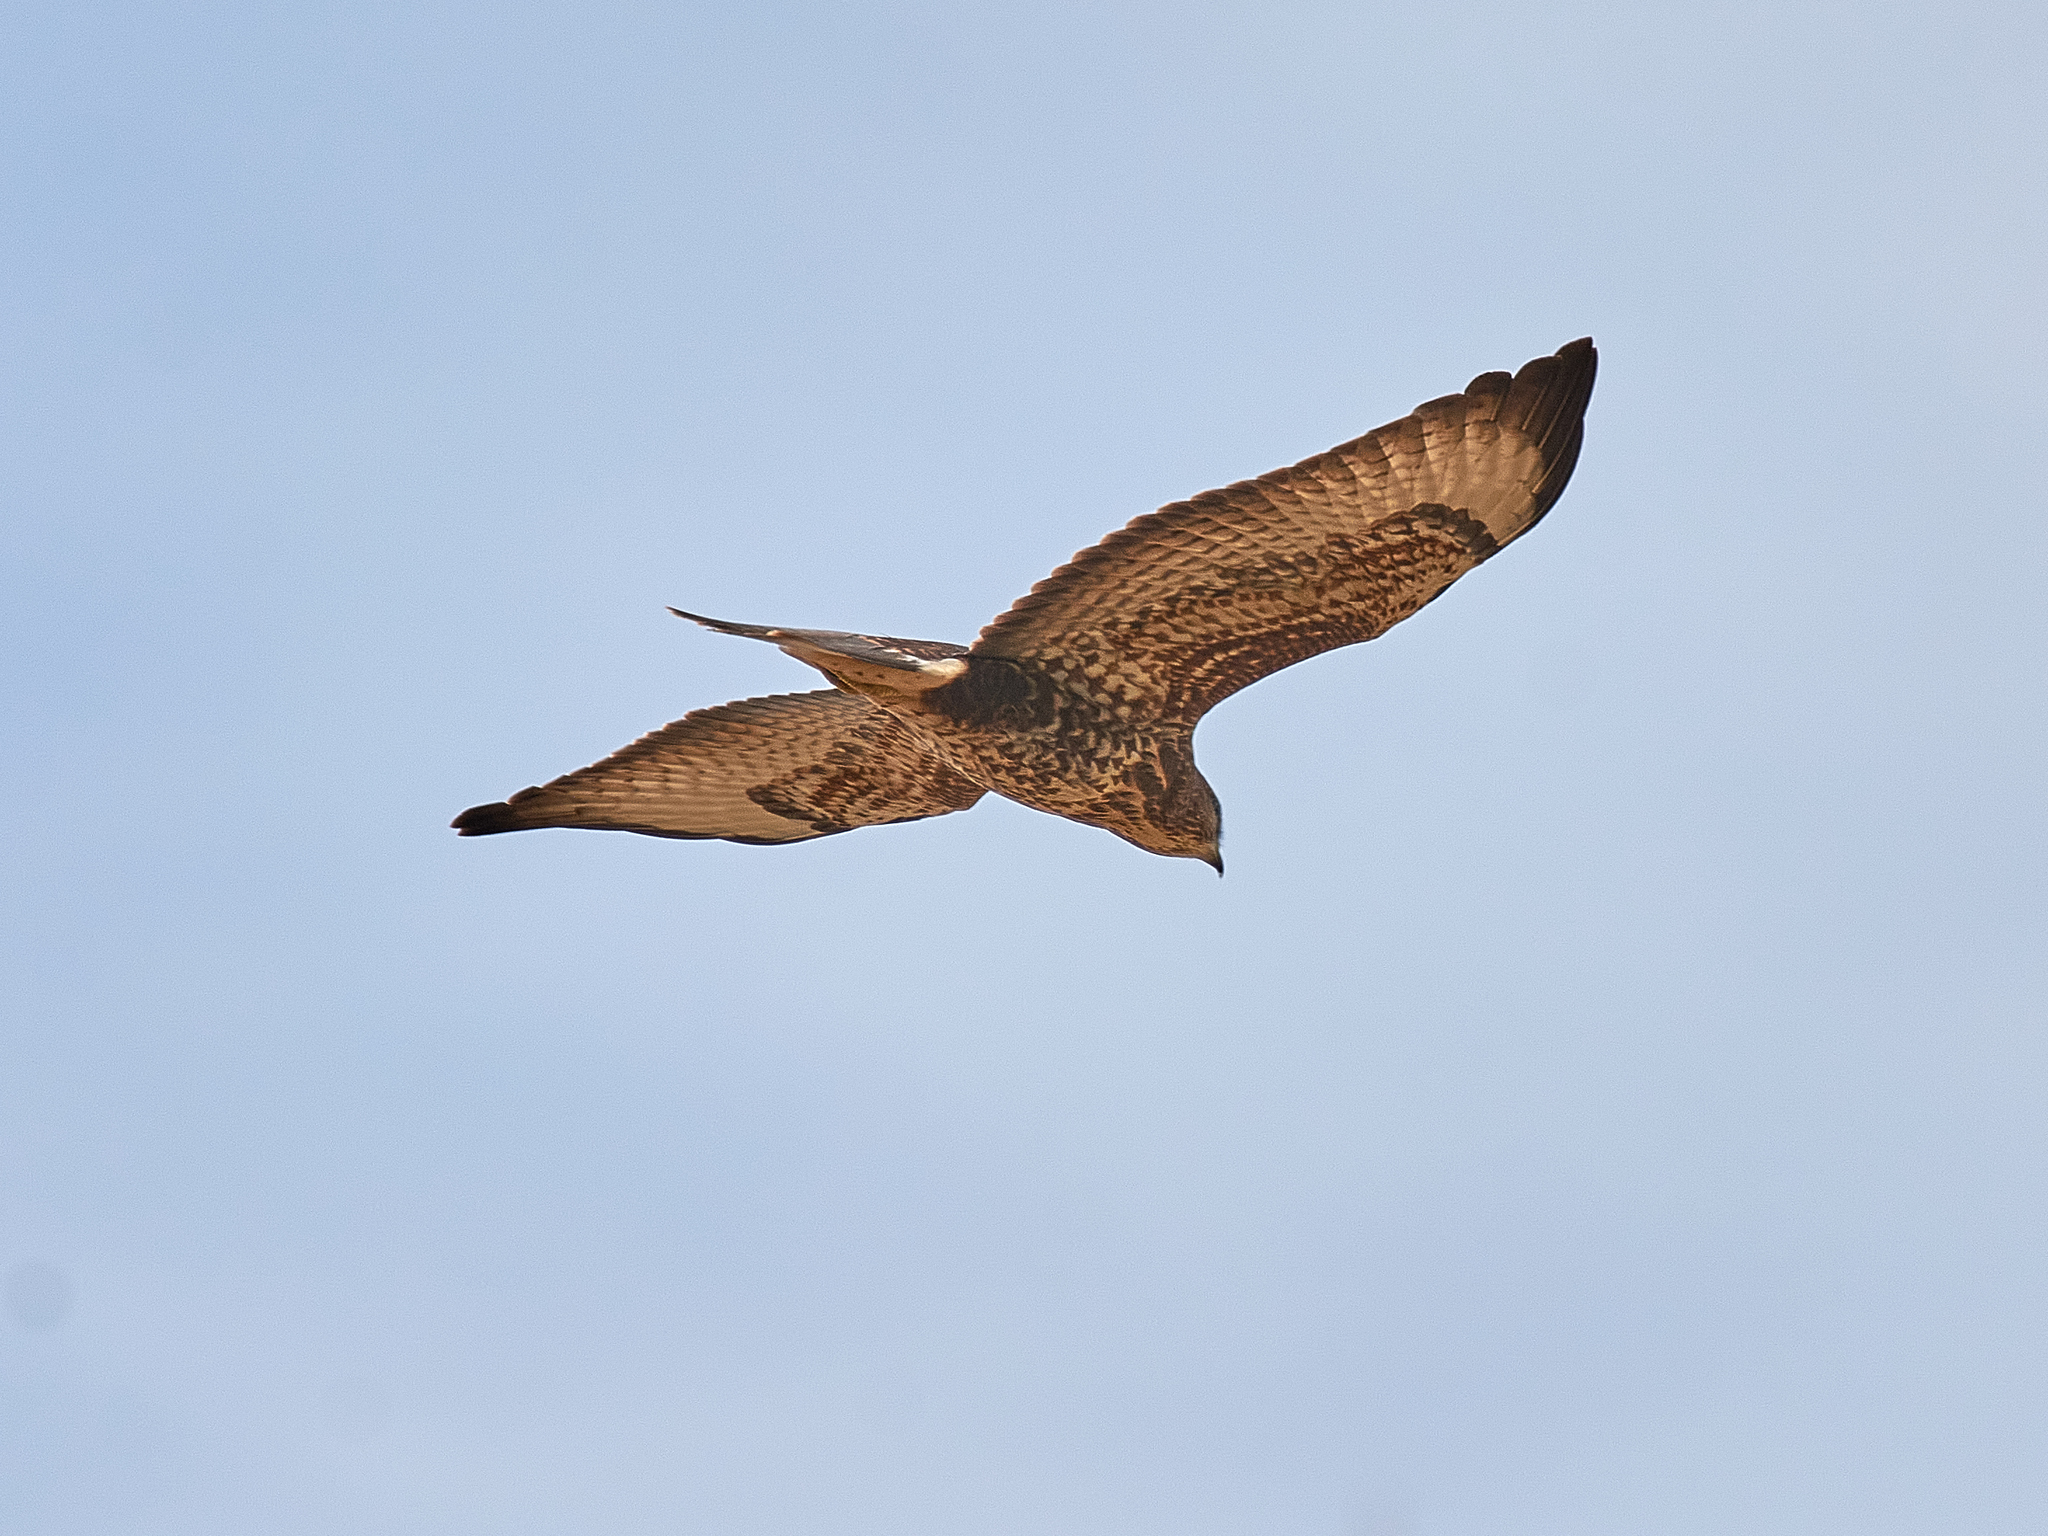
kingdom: Animalia
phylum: Chordata
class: Aves
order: Accipitriformes
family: Accipitridae
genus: Buteo
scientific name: Buteo buteo
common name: Common buzzard
